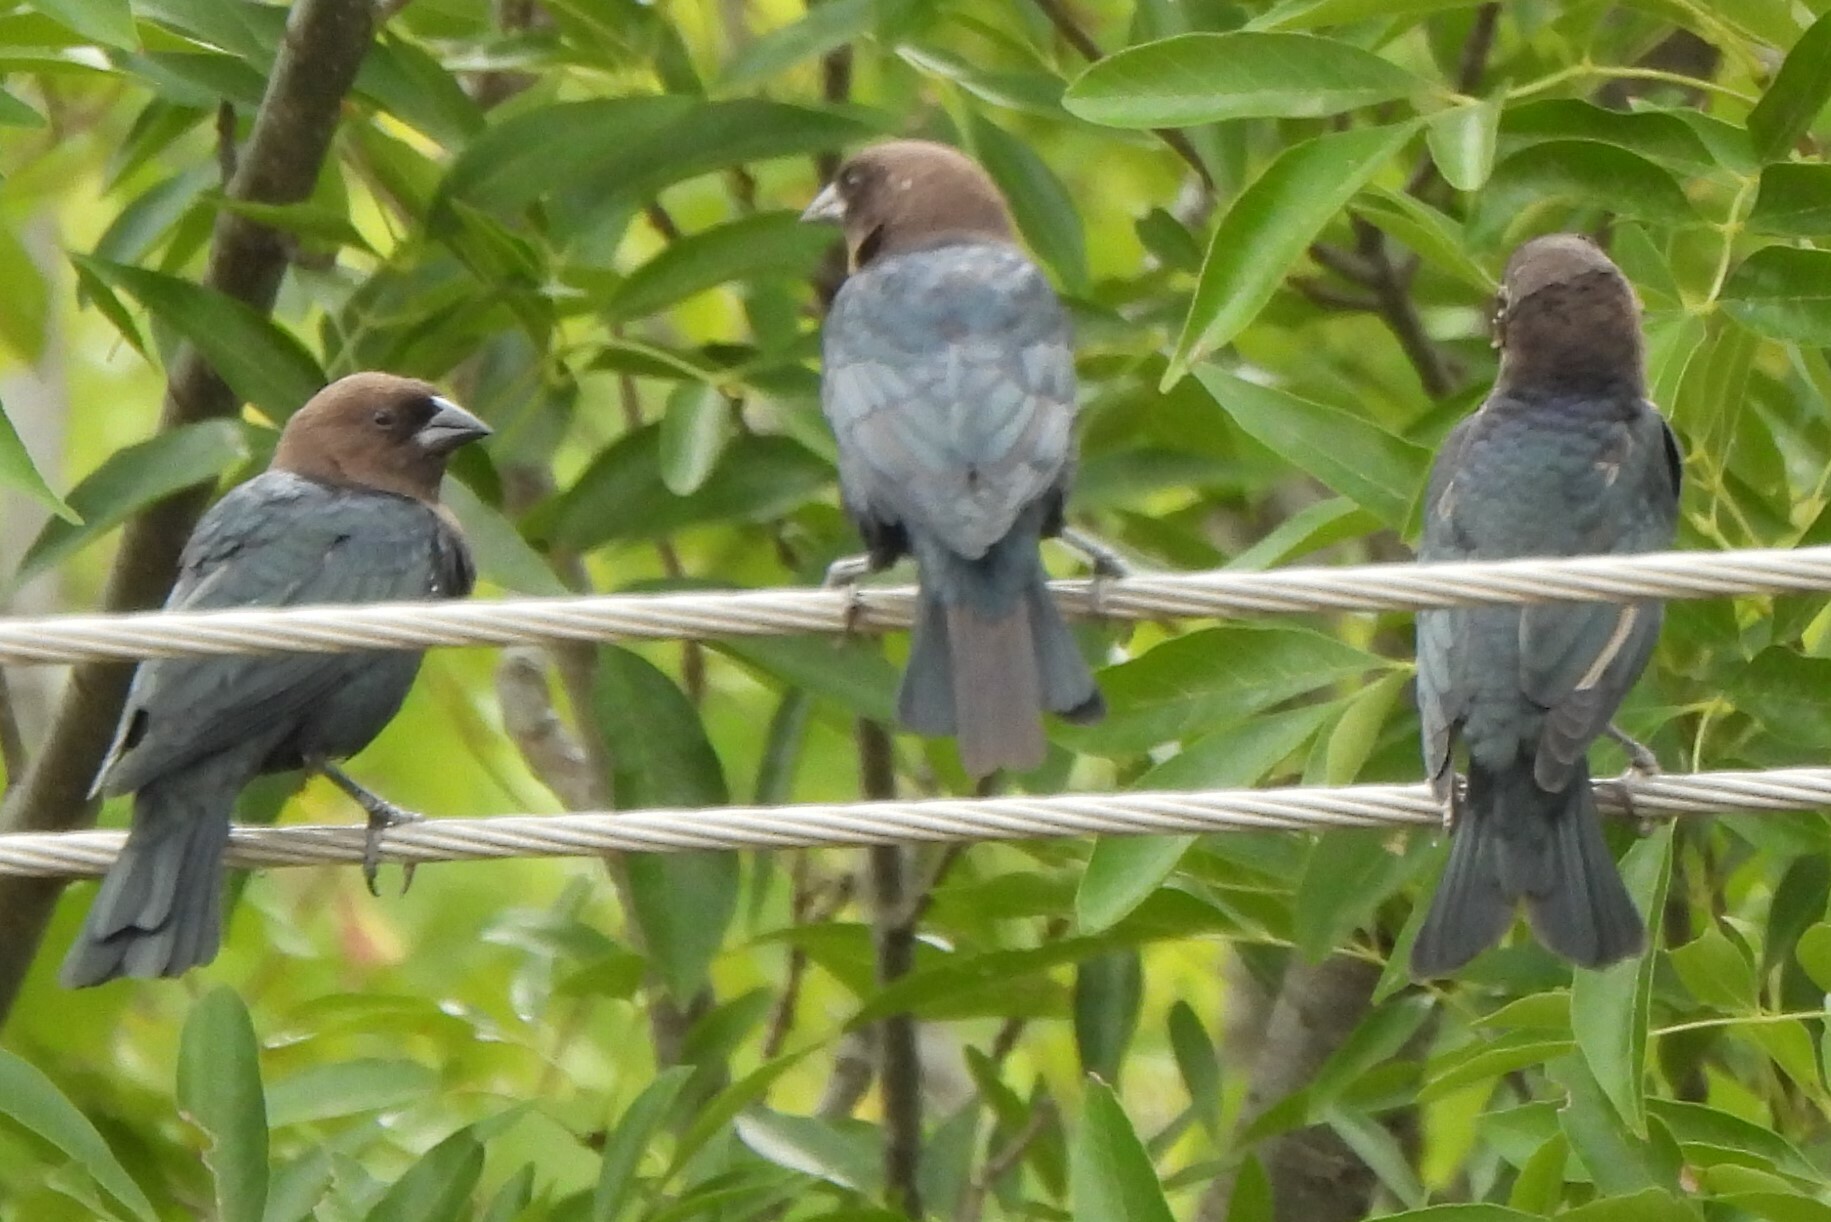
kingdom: Animalia
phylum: Chordata
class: Aves
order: Passeriformes
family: Icteridae
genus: Molothrus
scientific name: Molothrus ater
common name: Brown-headed cowbird
